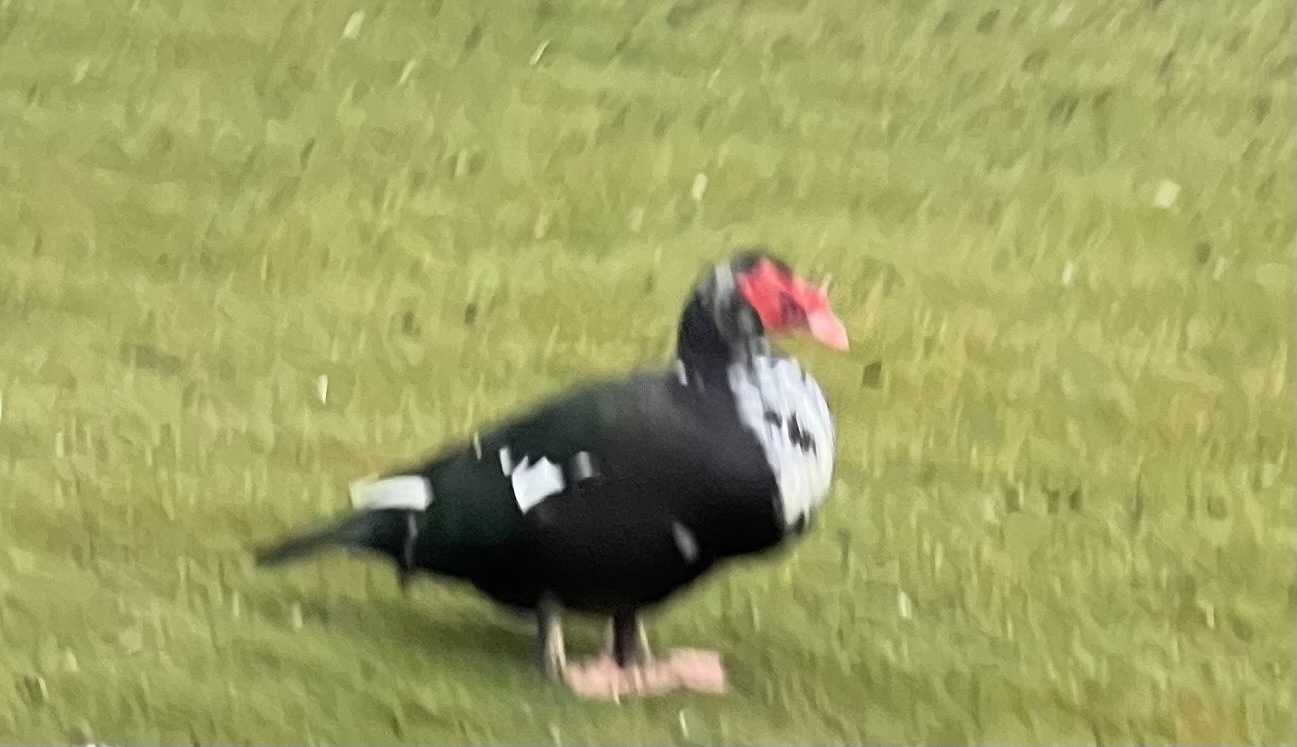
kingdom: Animalia
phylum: Chordata
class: Aves
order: Anseriformes
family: Anatidae
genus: Cairina
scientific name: Cairina moschata
